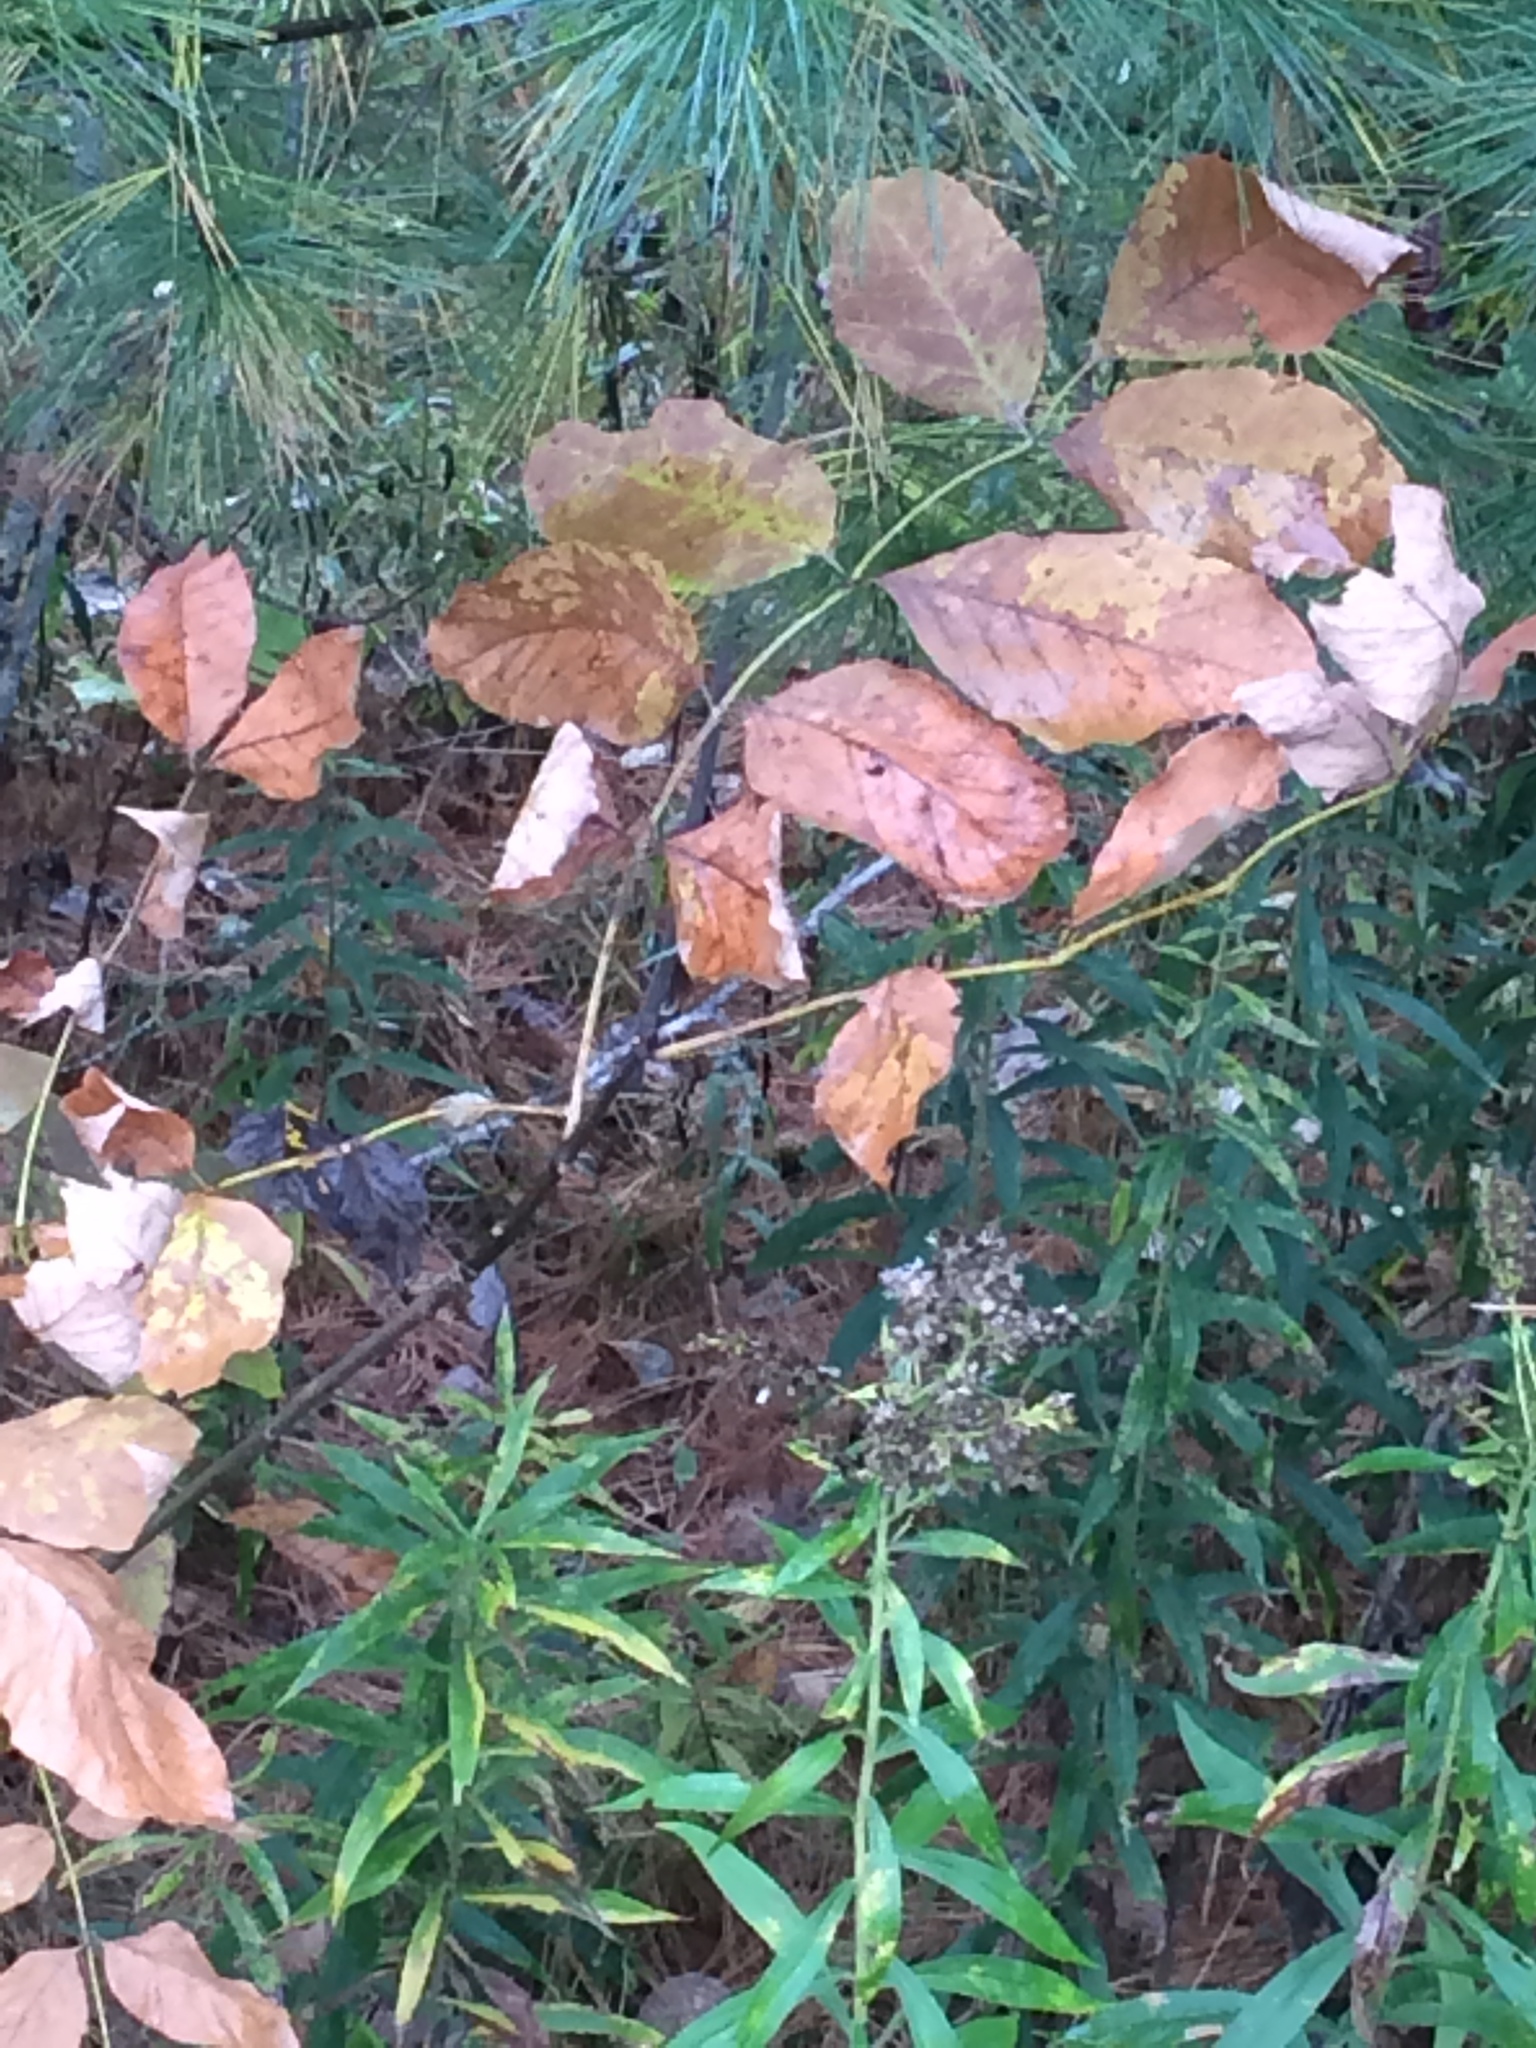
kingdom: Plantae
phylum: Tracheophyta
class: Magnoliopsida
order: Lamiales
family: Oleaceae
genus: Fraxinus
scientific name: Fraxinus americana
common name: White ash
